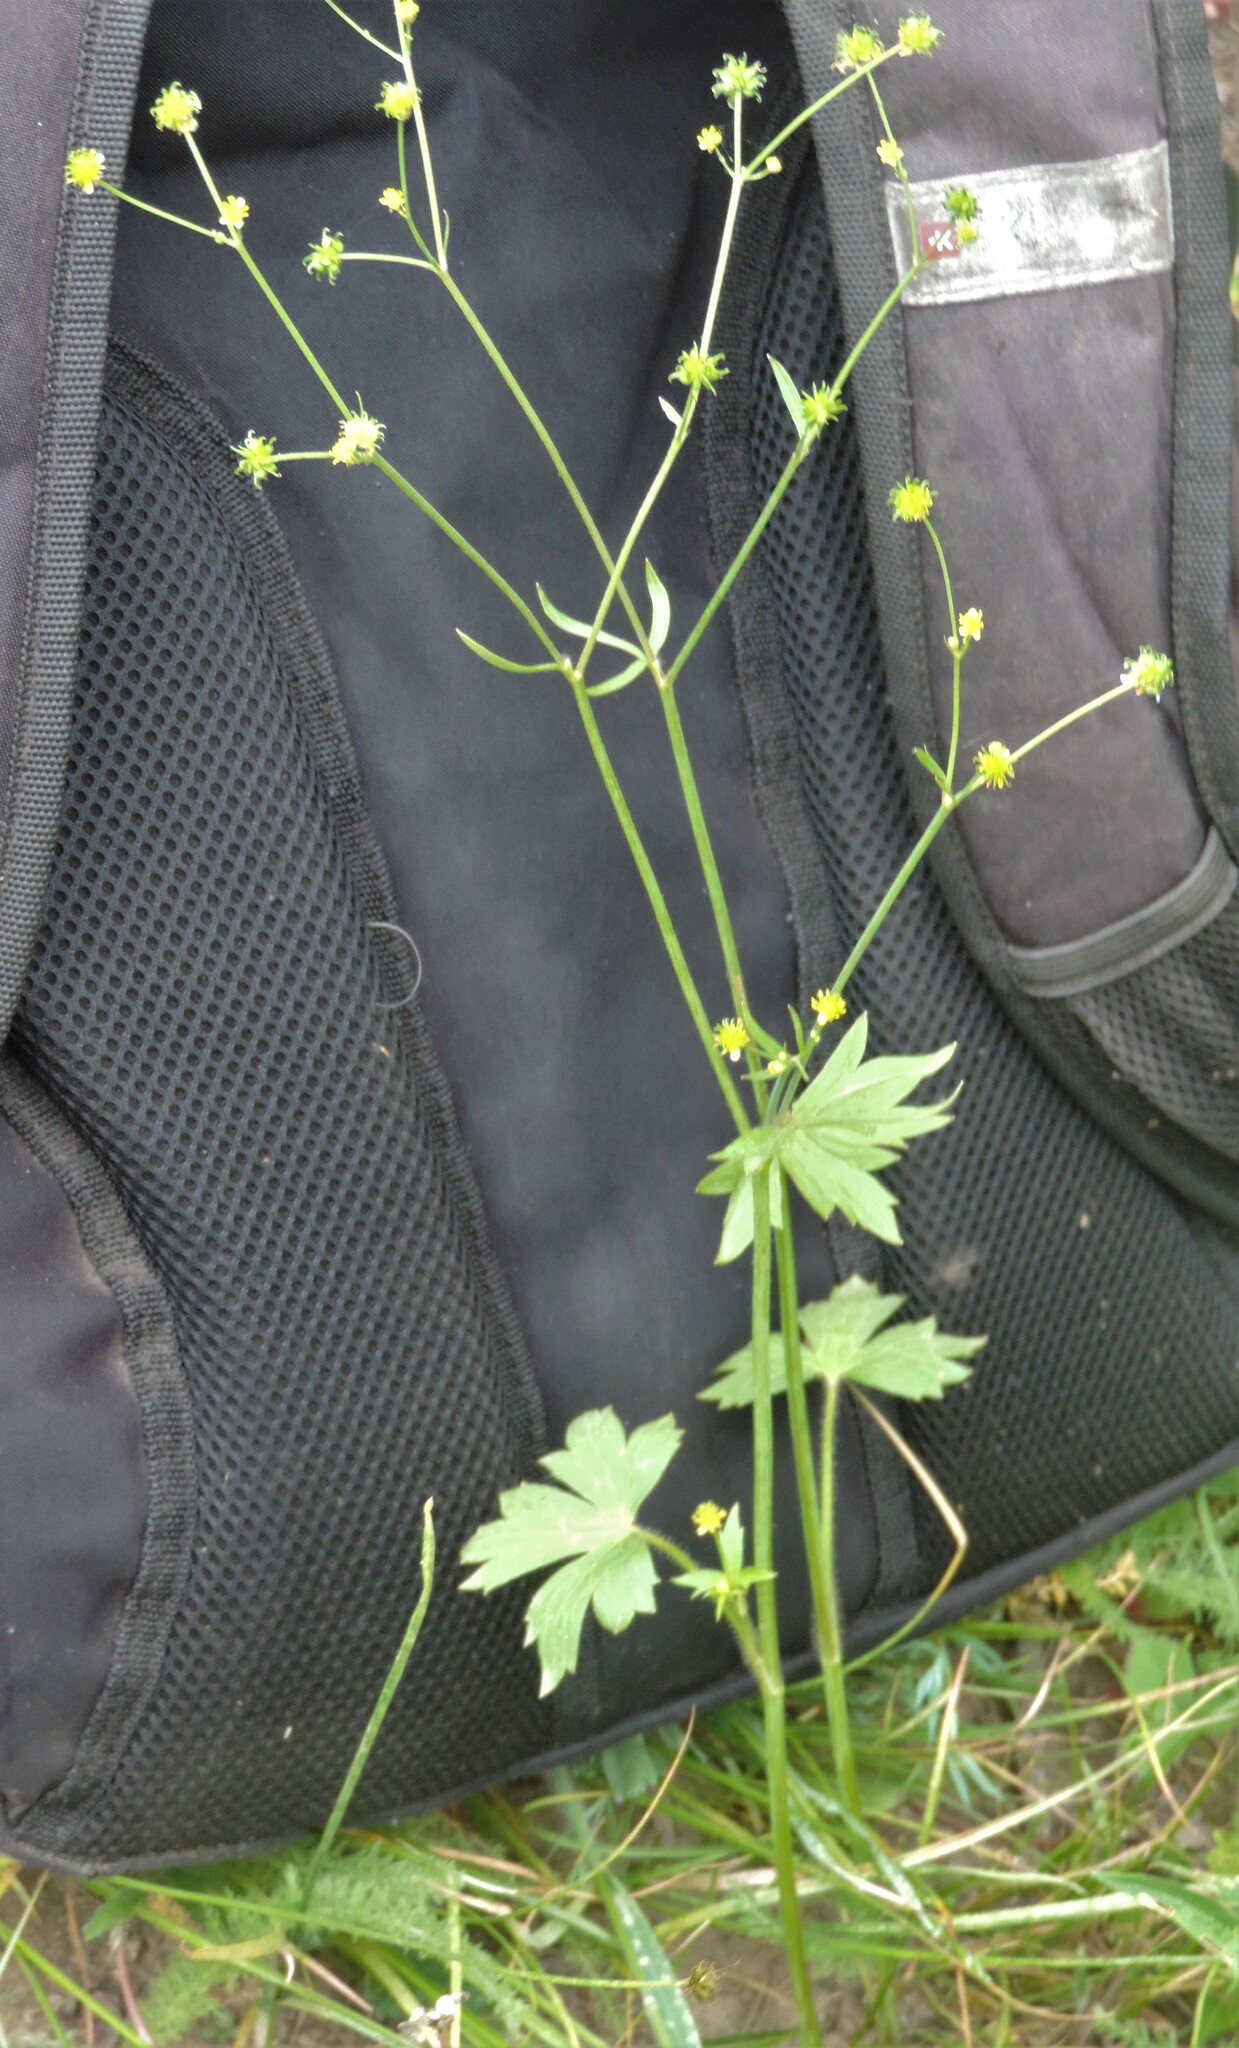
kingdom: Plantae
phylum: Tracheophyta
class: Magnoliopsida
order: Ranunculales
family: Ranunculaceae
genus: Ranunculus
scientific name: Ranunculus uncinatus
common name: Little buttercup
